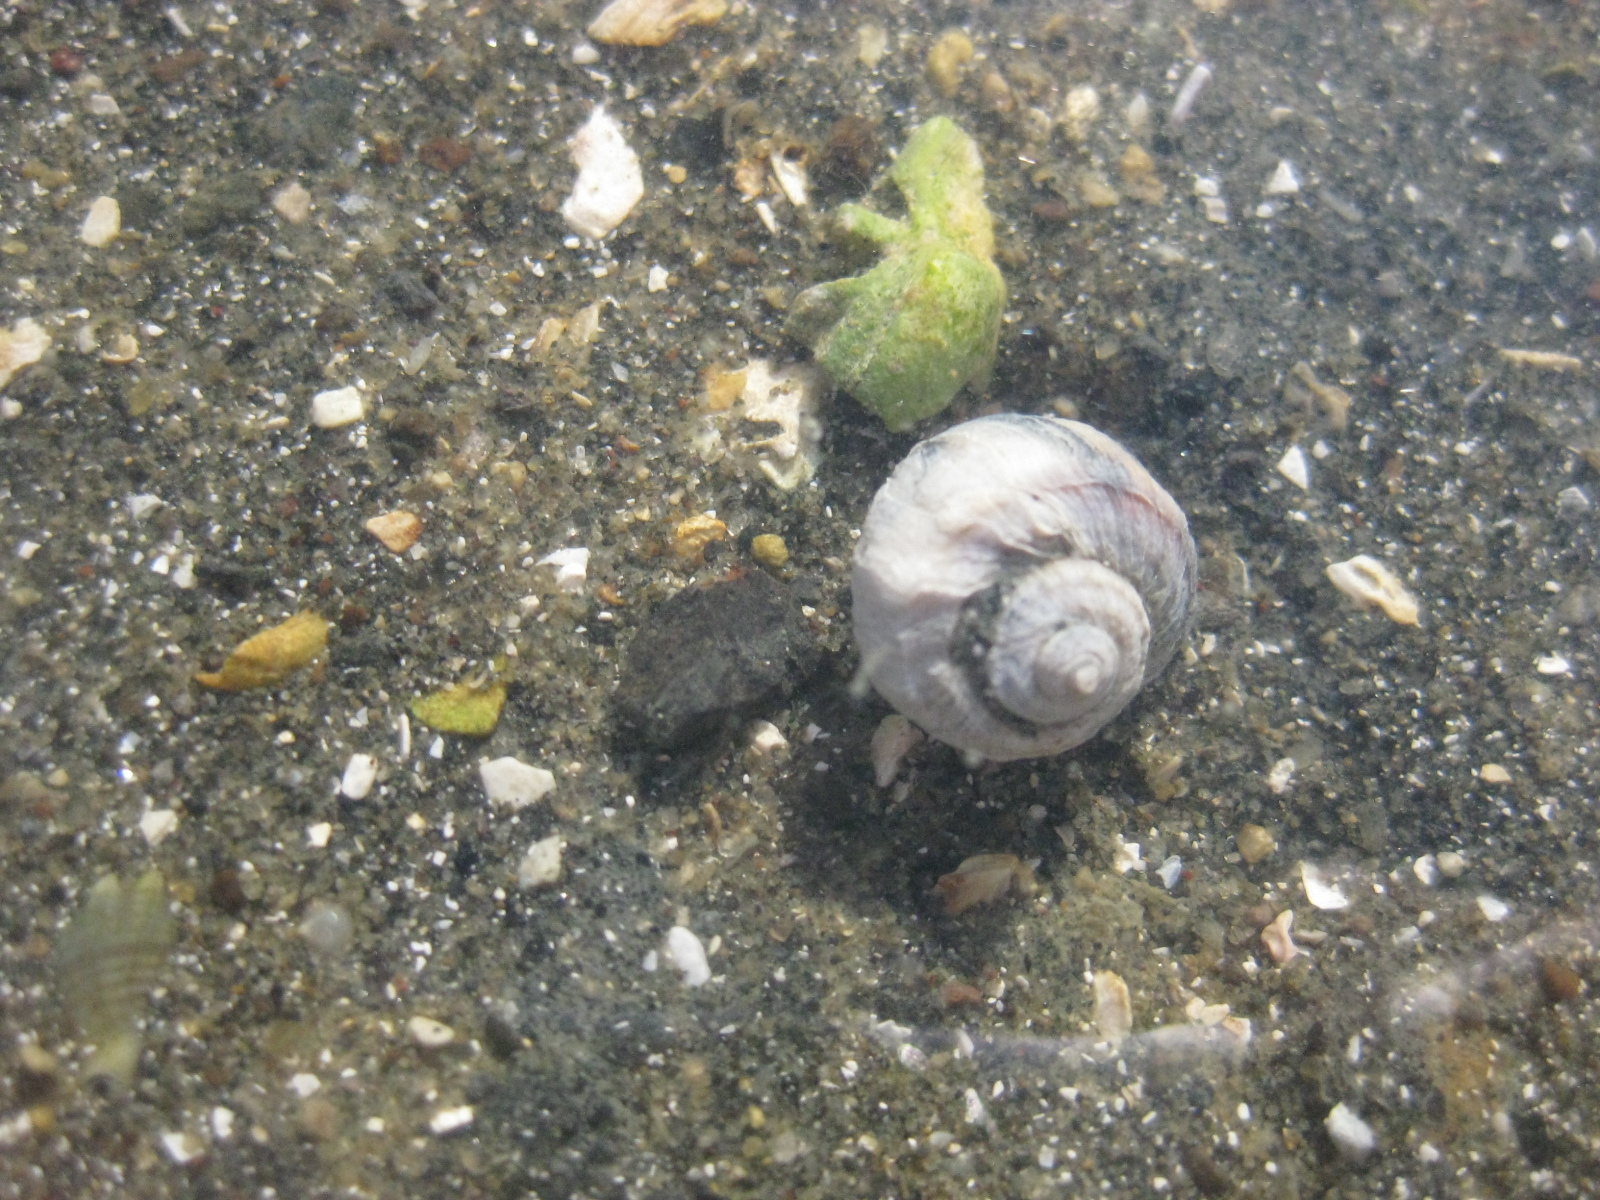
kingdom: Animalia
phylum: Mollusca
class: Gastropoda
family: Amphibolidae
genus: Amphibola
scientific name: Amphibola crenata
